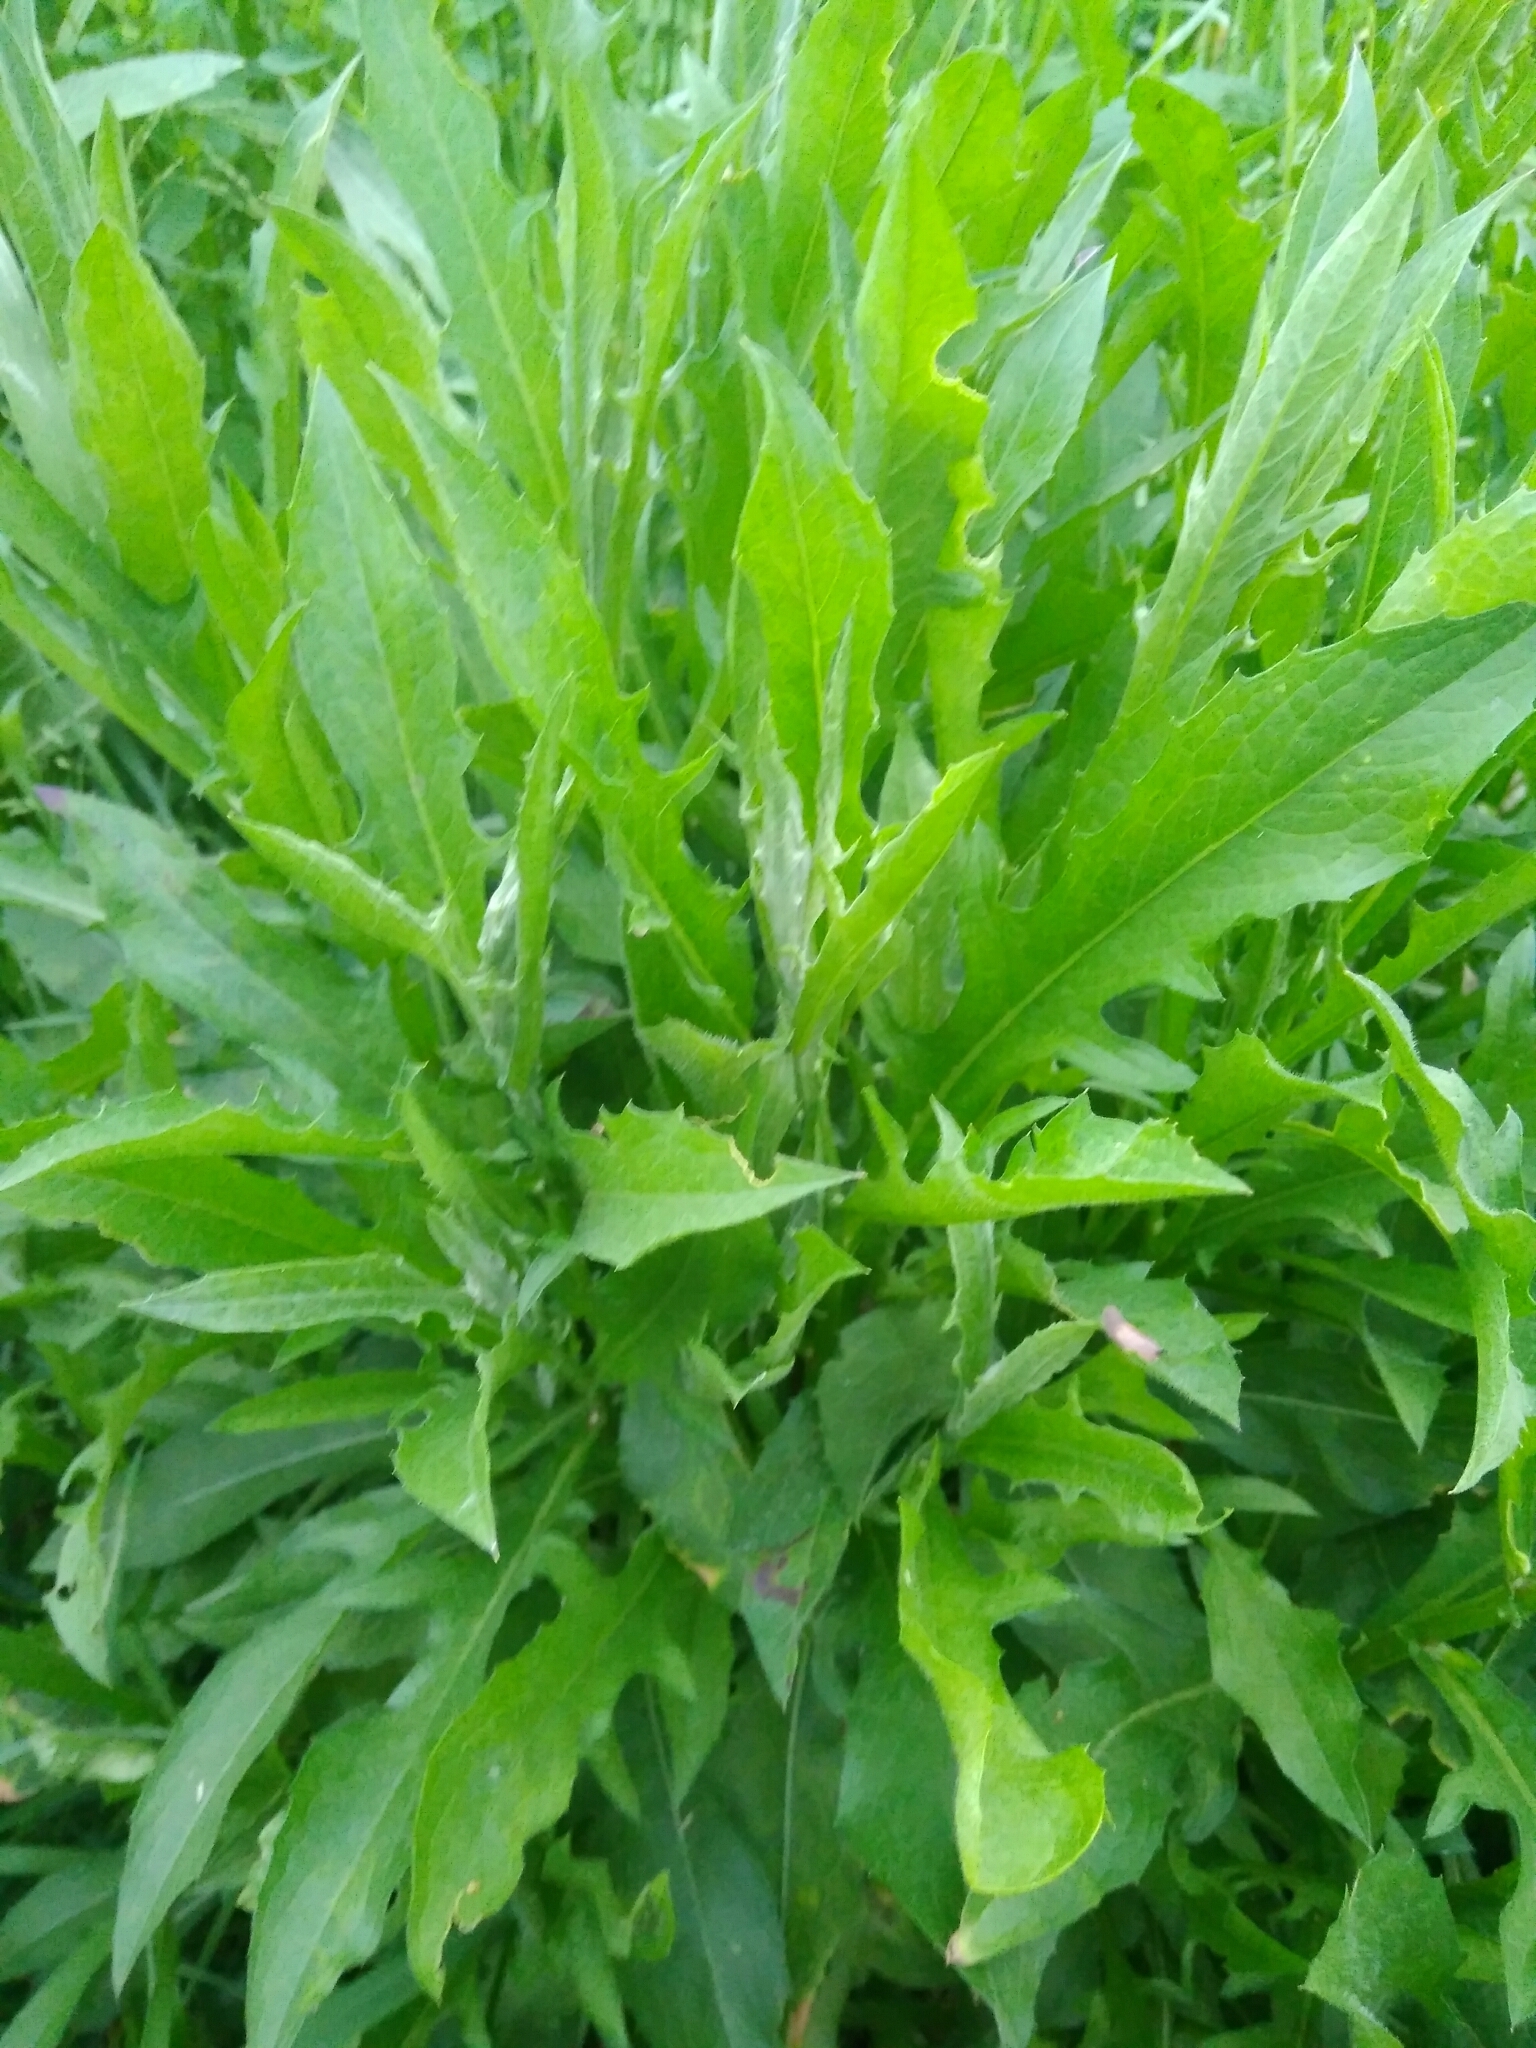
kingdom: Plantae
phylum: Tracheophyta
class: Magnoliopsida
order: Asterales
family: Asteraceae
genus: Centaurea
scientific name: Centaurea jacea
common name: Brown knapweed
